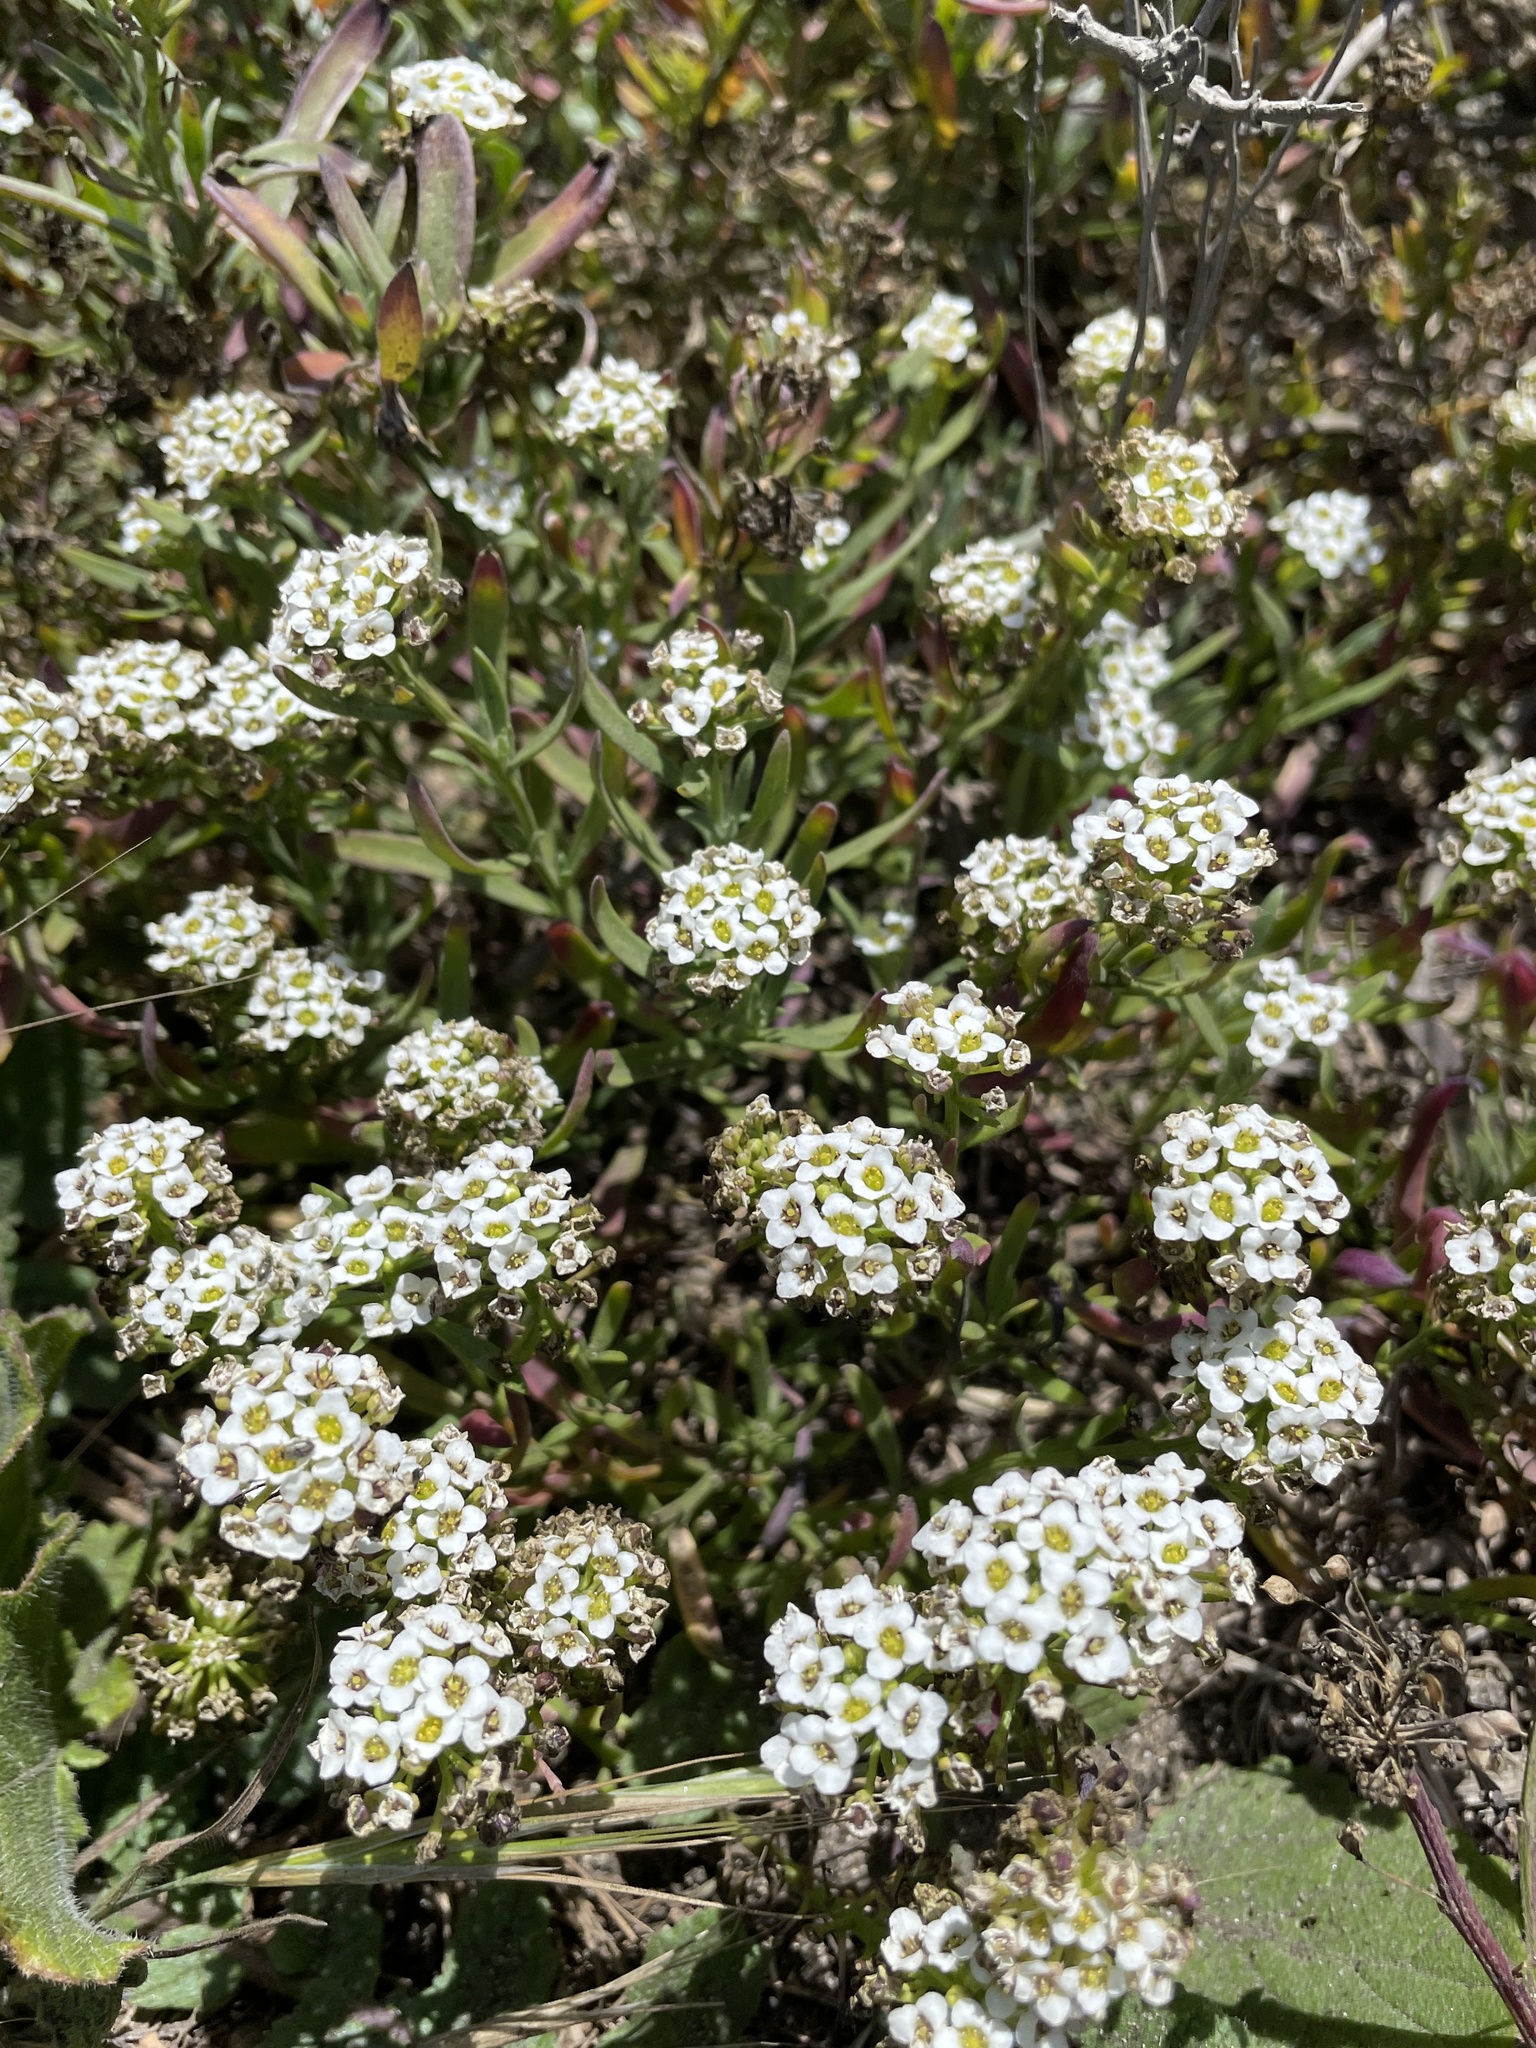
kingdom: Plantae
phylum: Tracheophyta
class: Magnoliopsida
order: Brassicales
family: Brassicaceae
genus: Lobularia
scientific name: Lobularia maritima
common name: Sweet alison
